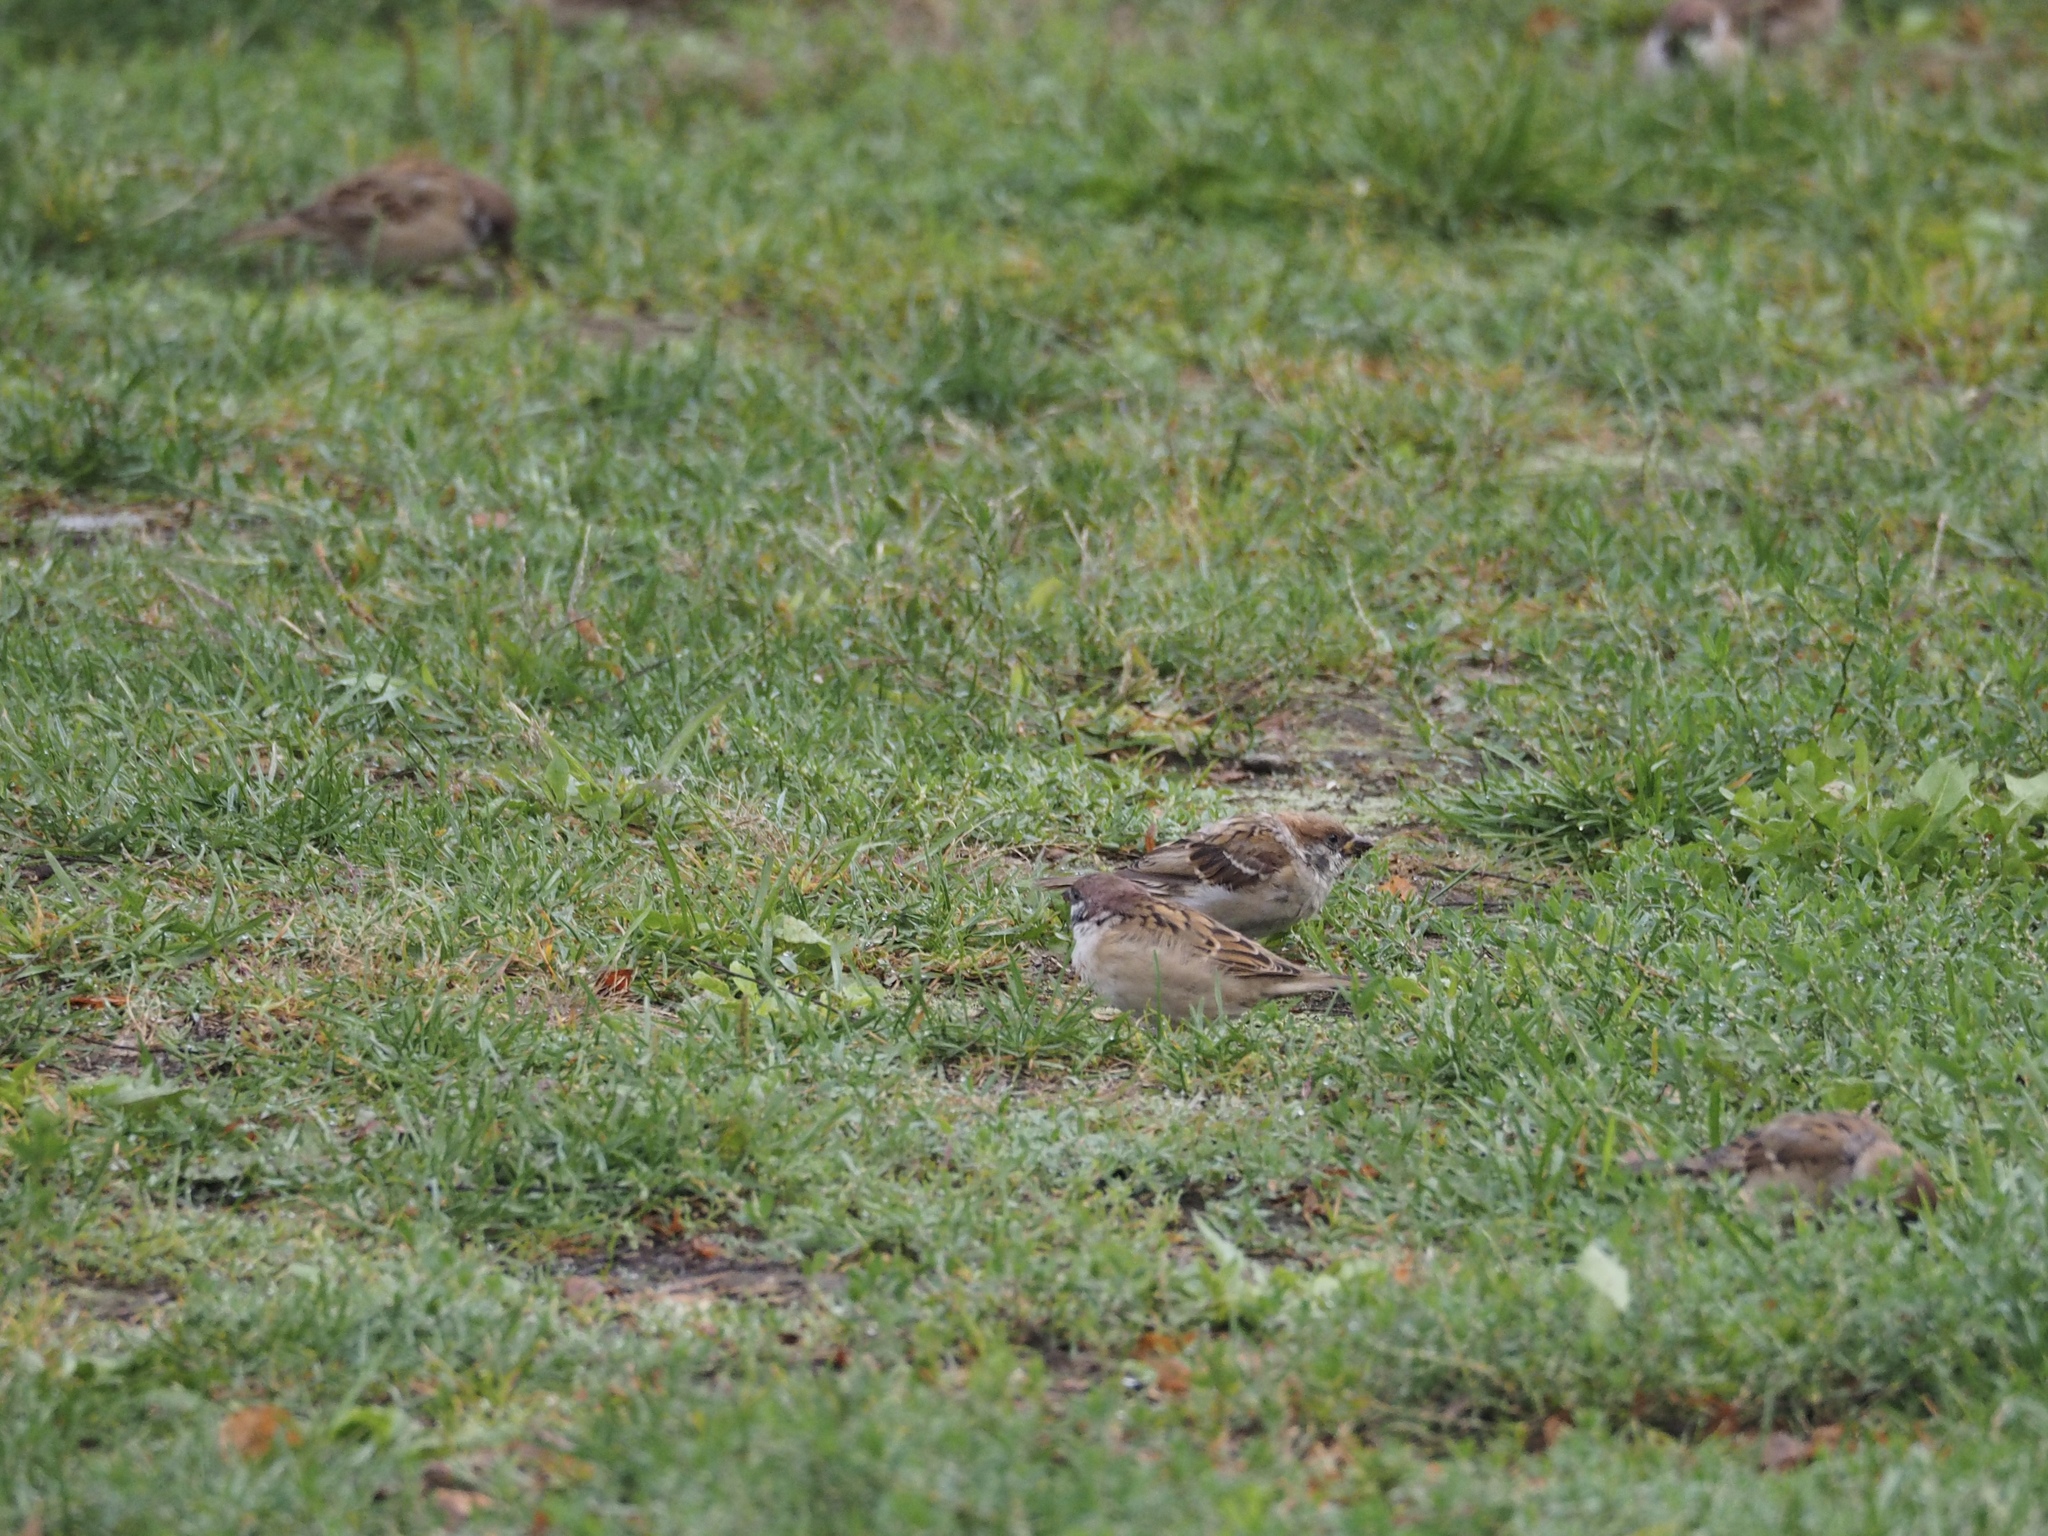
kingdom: Animalia
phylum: Chordata
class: Aves
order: Passeriformes
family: Passeridae
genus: Passer
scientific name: Passer montanus
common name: Eurasian tree sparrow
